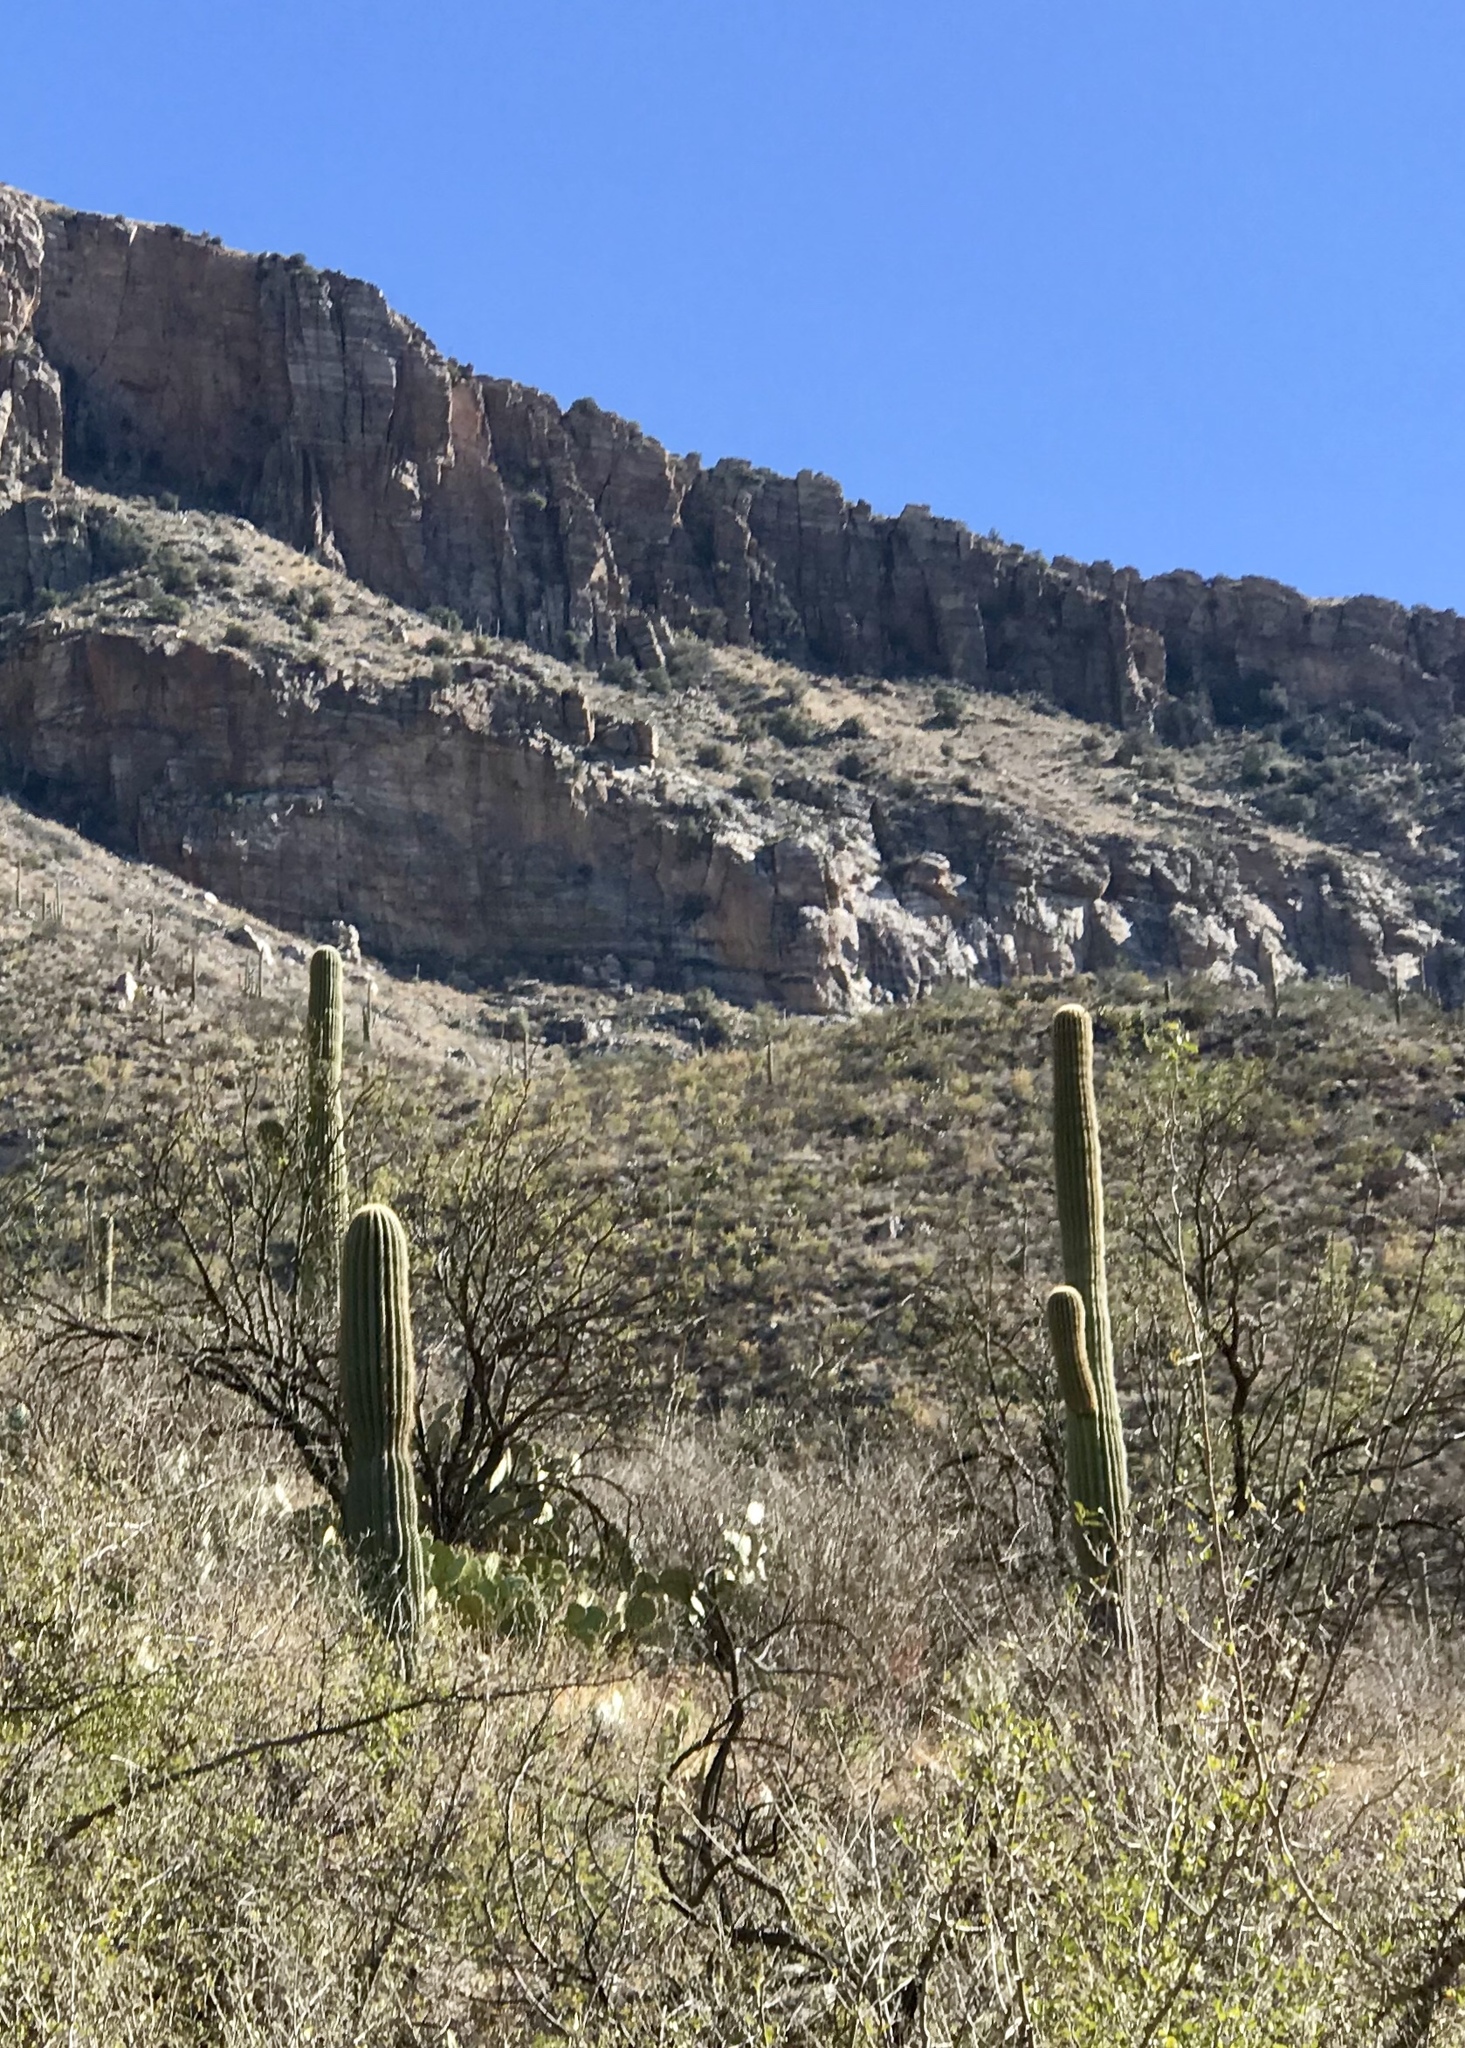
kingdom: Plantae
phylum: Tracheophyta
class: Magnoliopsida
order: Caryophyllales
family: Cactaceae
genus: Carnegiea
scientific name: Carnegiea gigantea
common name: Saguaro
